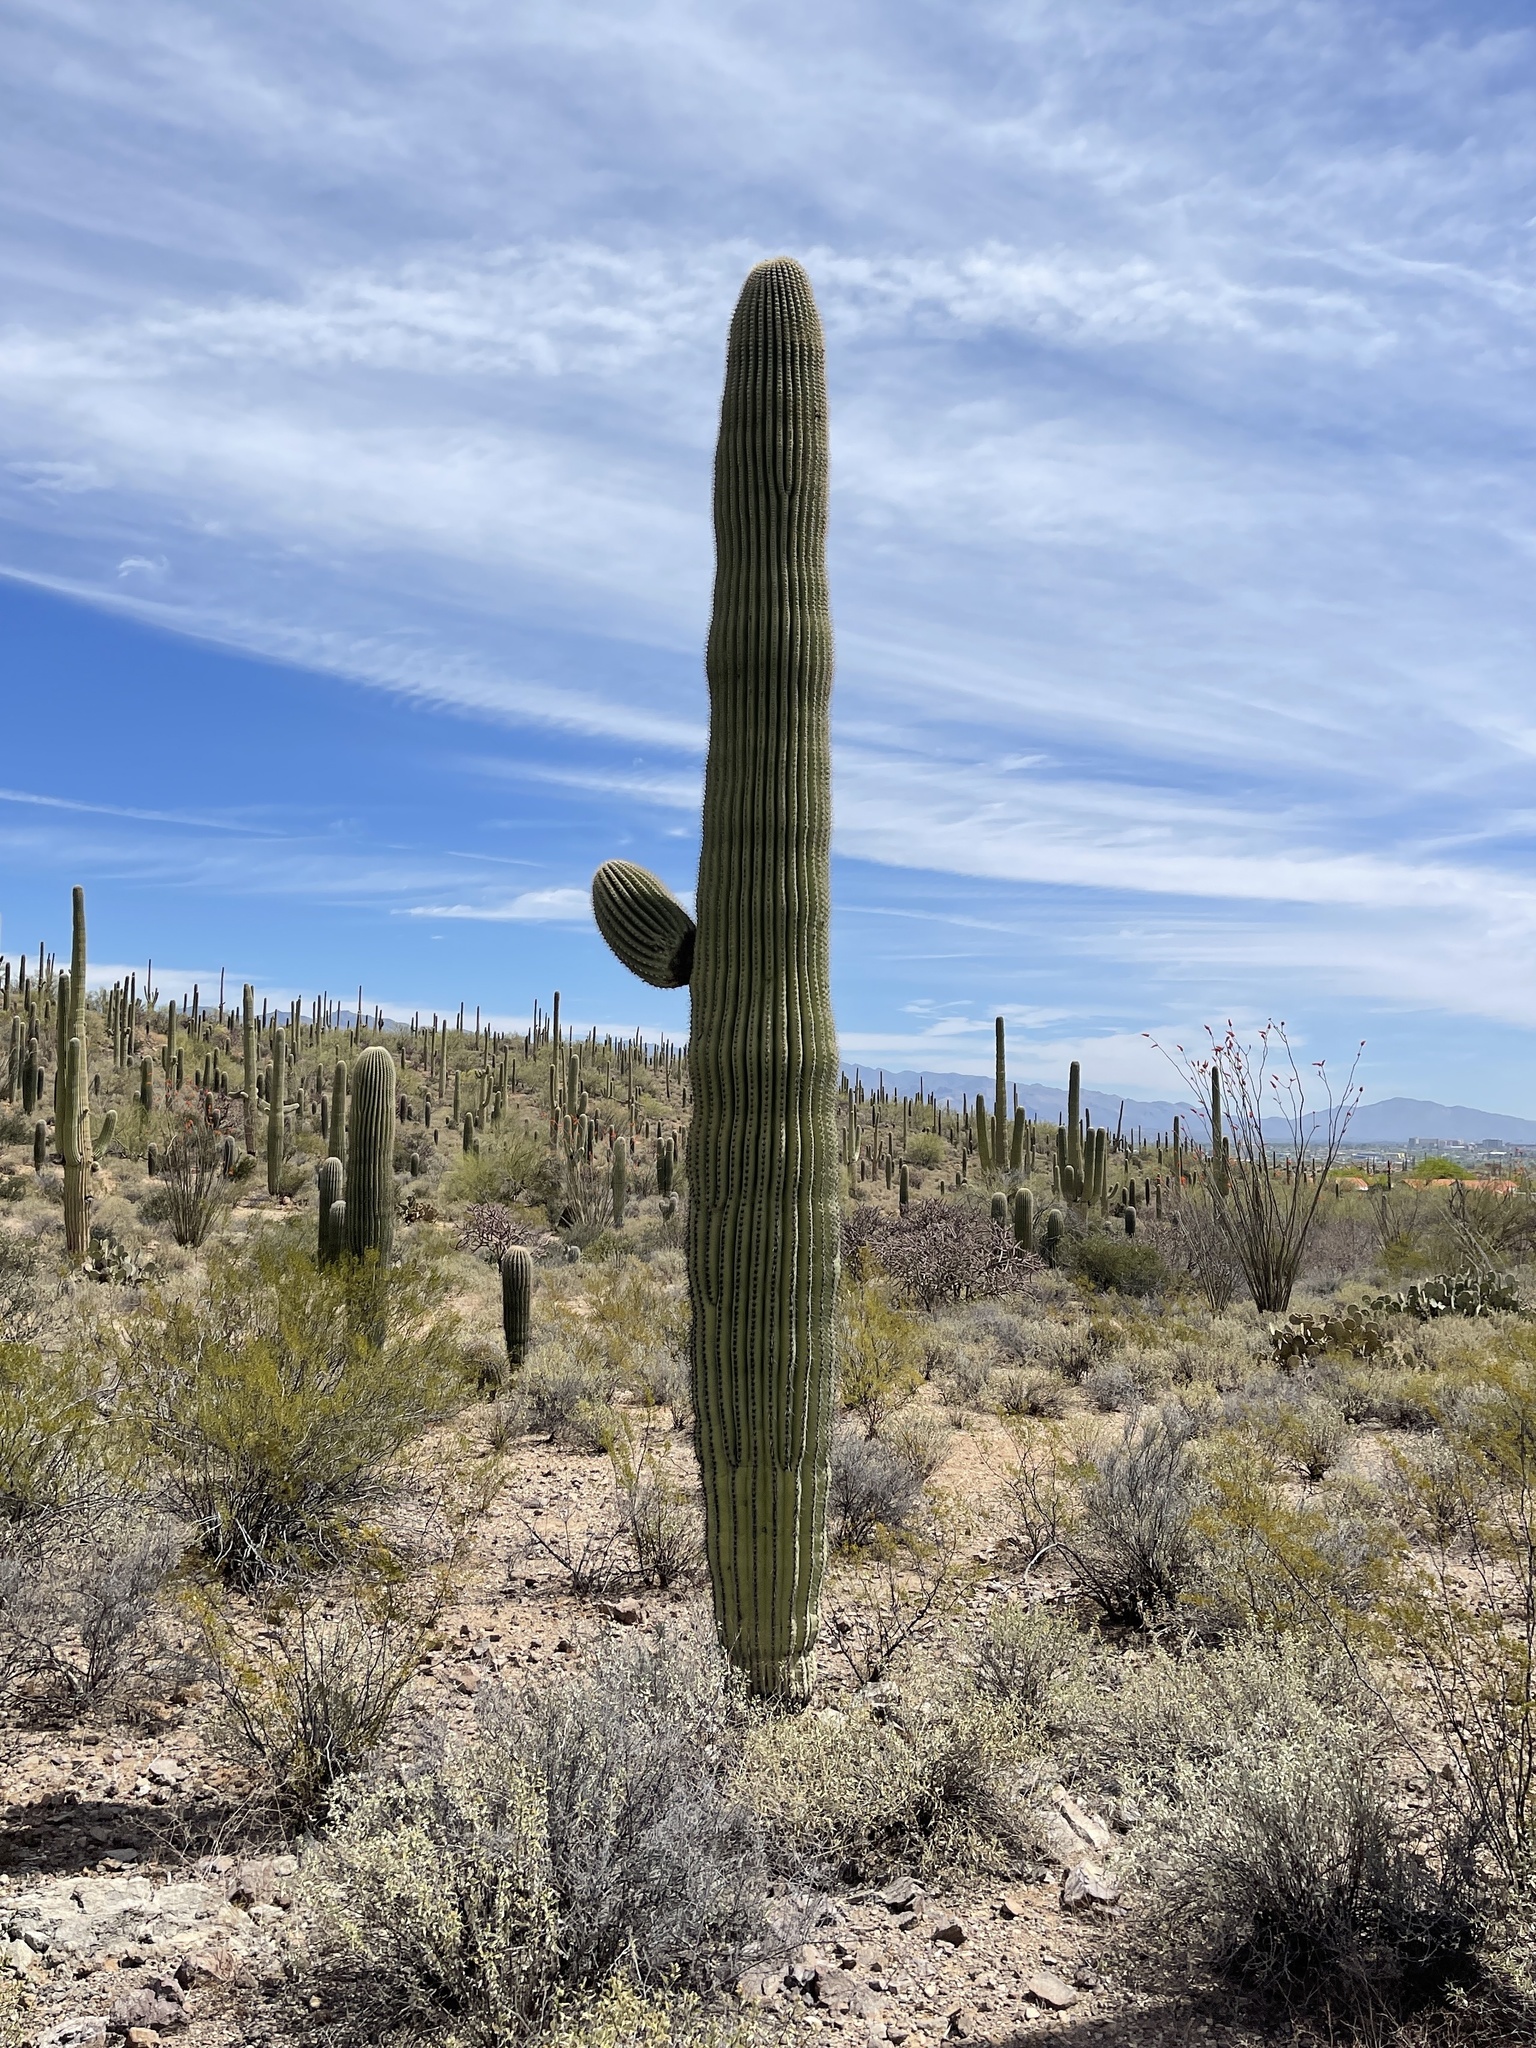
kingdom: Plantae
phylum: Tracheophyta
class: Magnoliopsida
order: Caryophyllales
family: Cactaceae
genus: Carnegiea
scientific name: Carnegiea gigantea
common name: Saguaro
